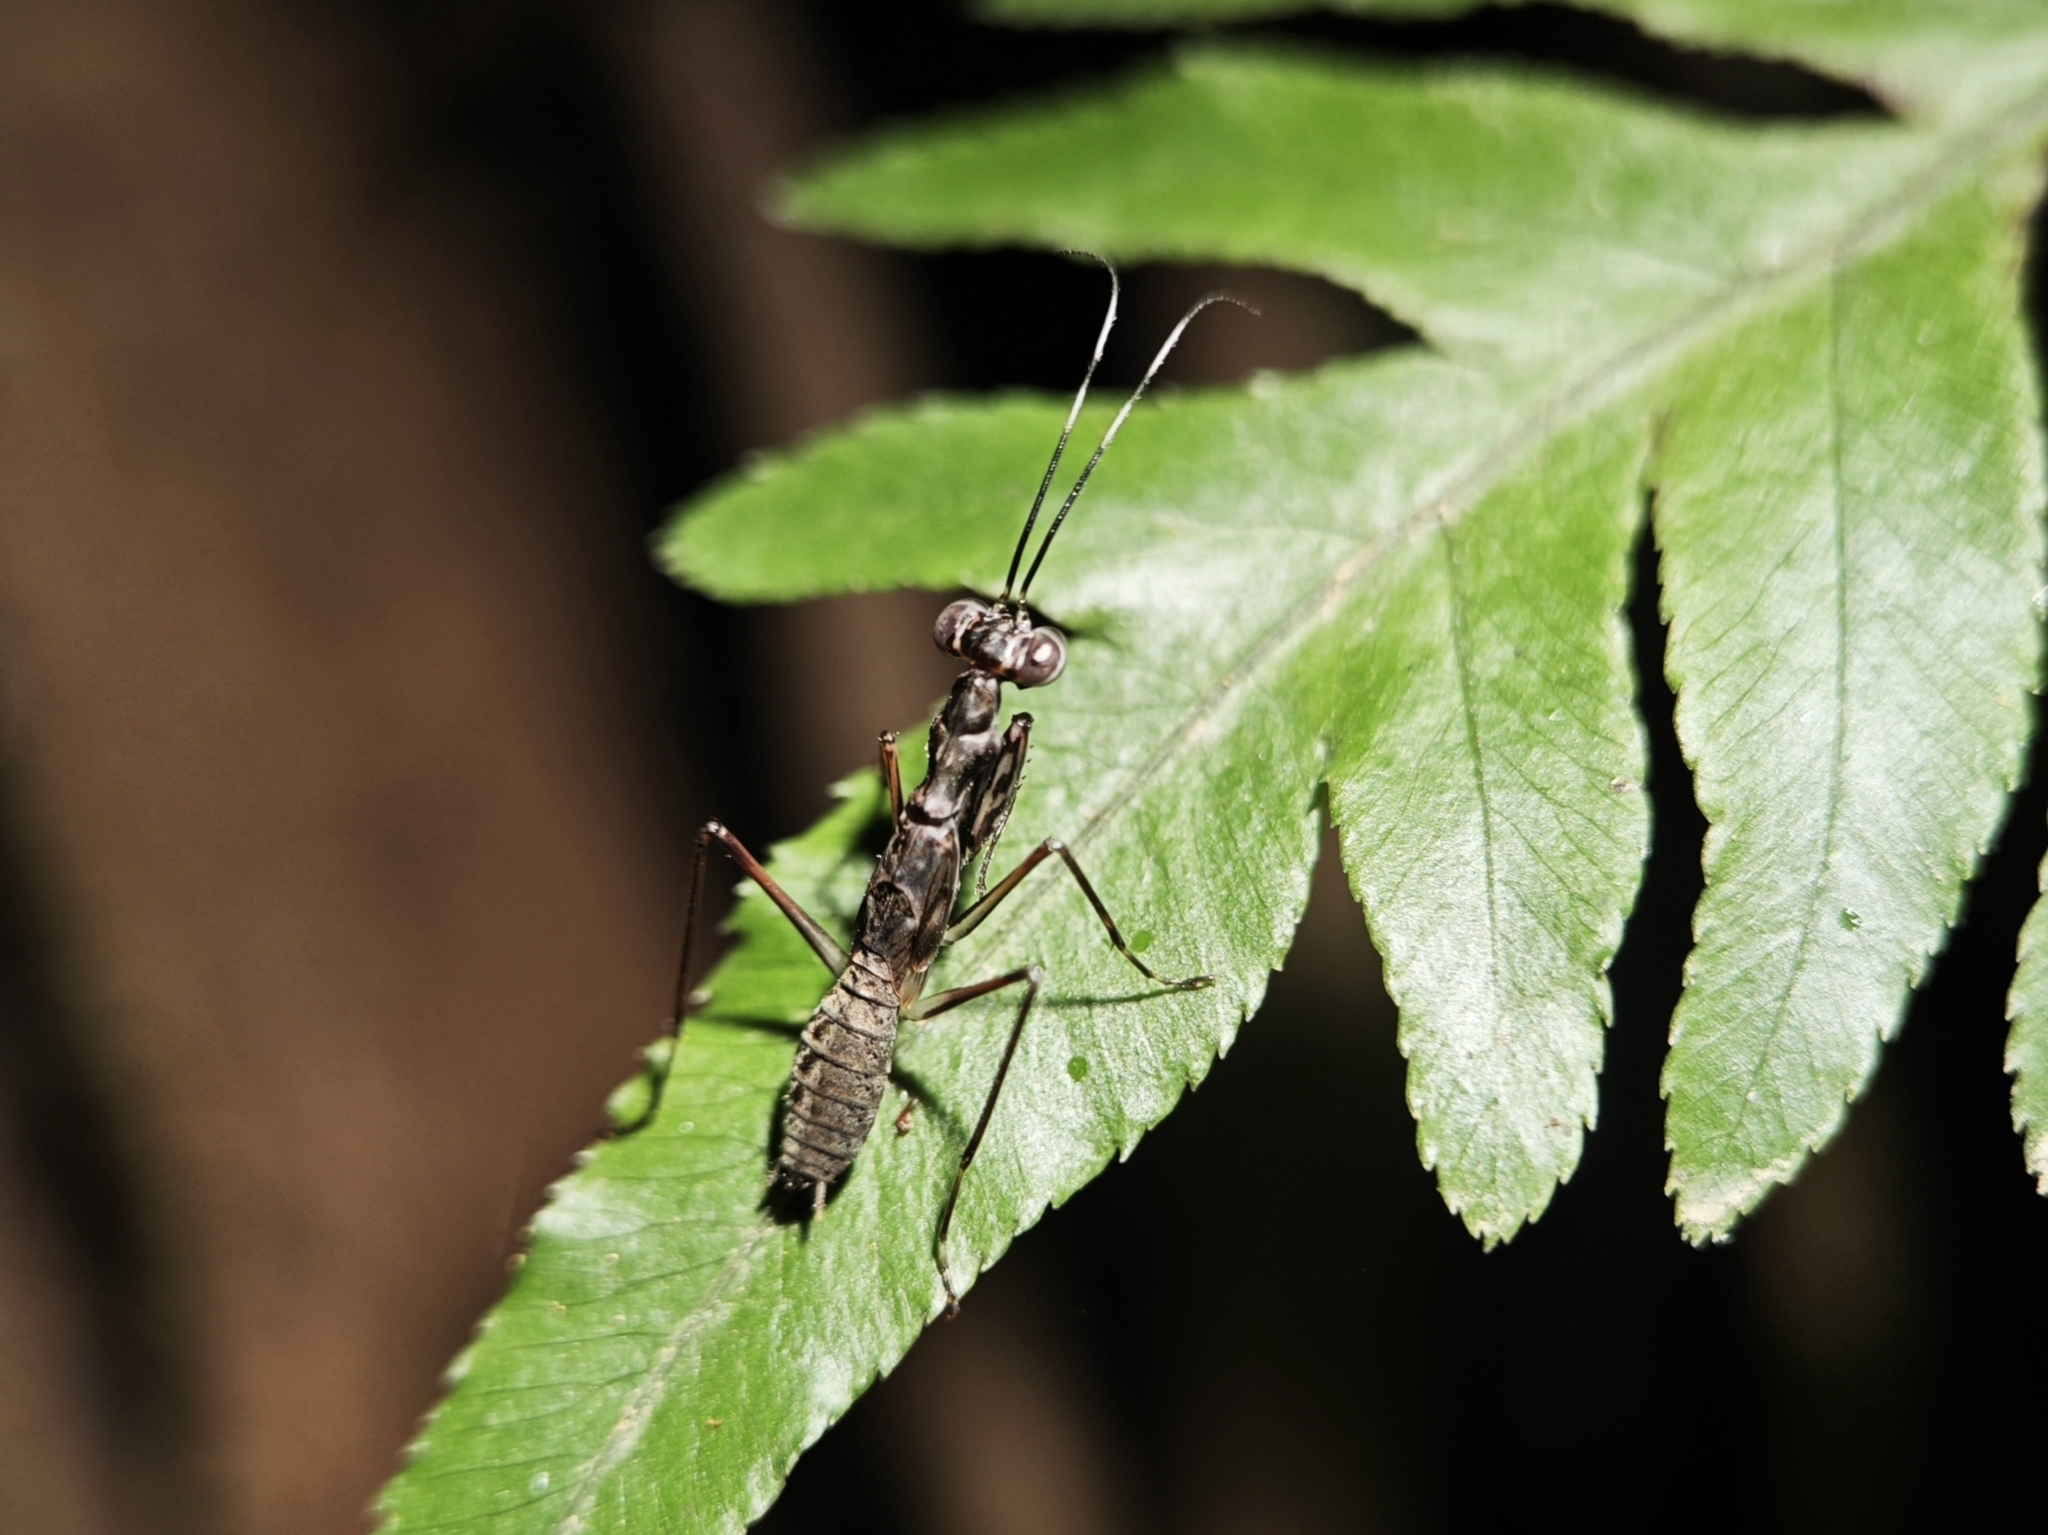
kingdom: Animalia
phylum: Arthropoda
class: Insecta
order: Mantodea
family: Gonypetidae
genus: Spilomantis
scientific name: Spilomantis occipitalis
